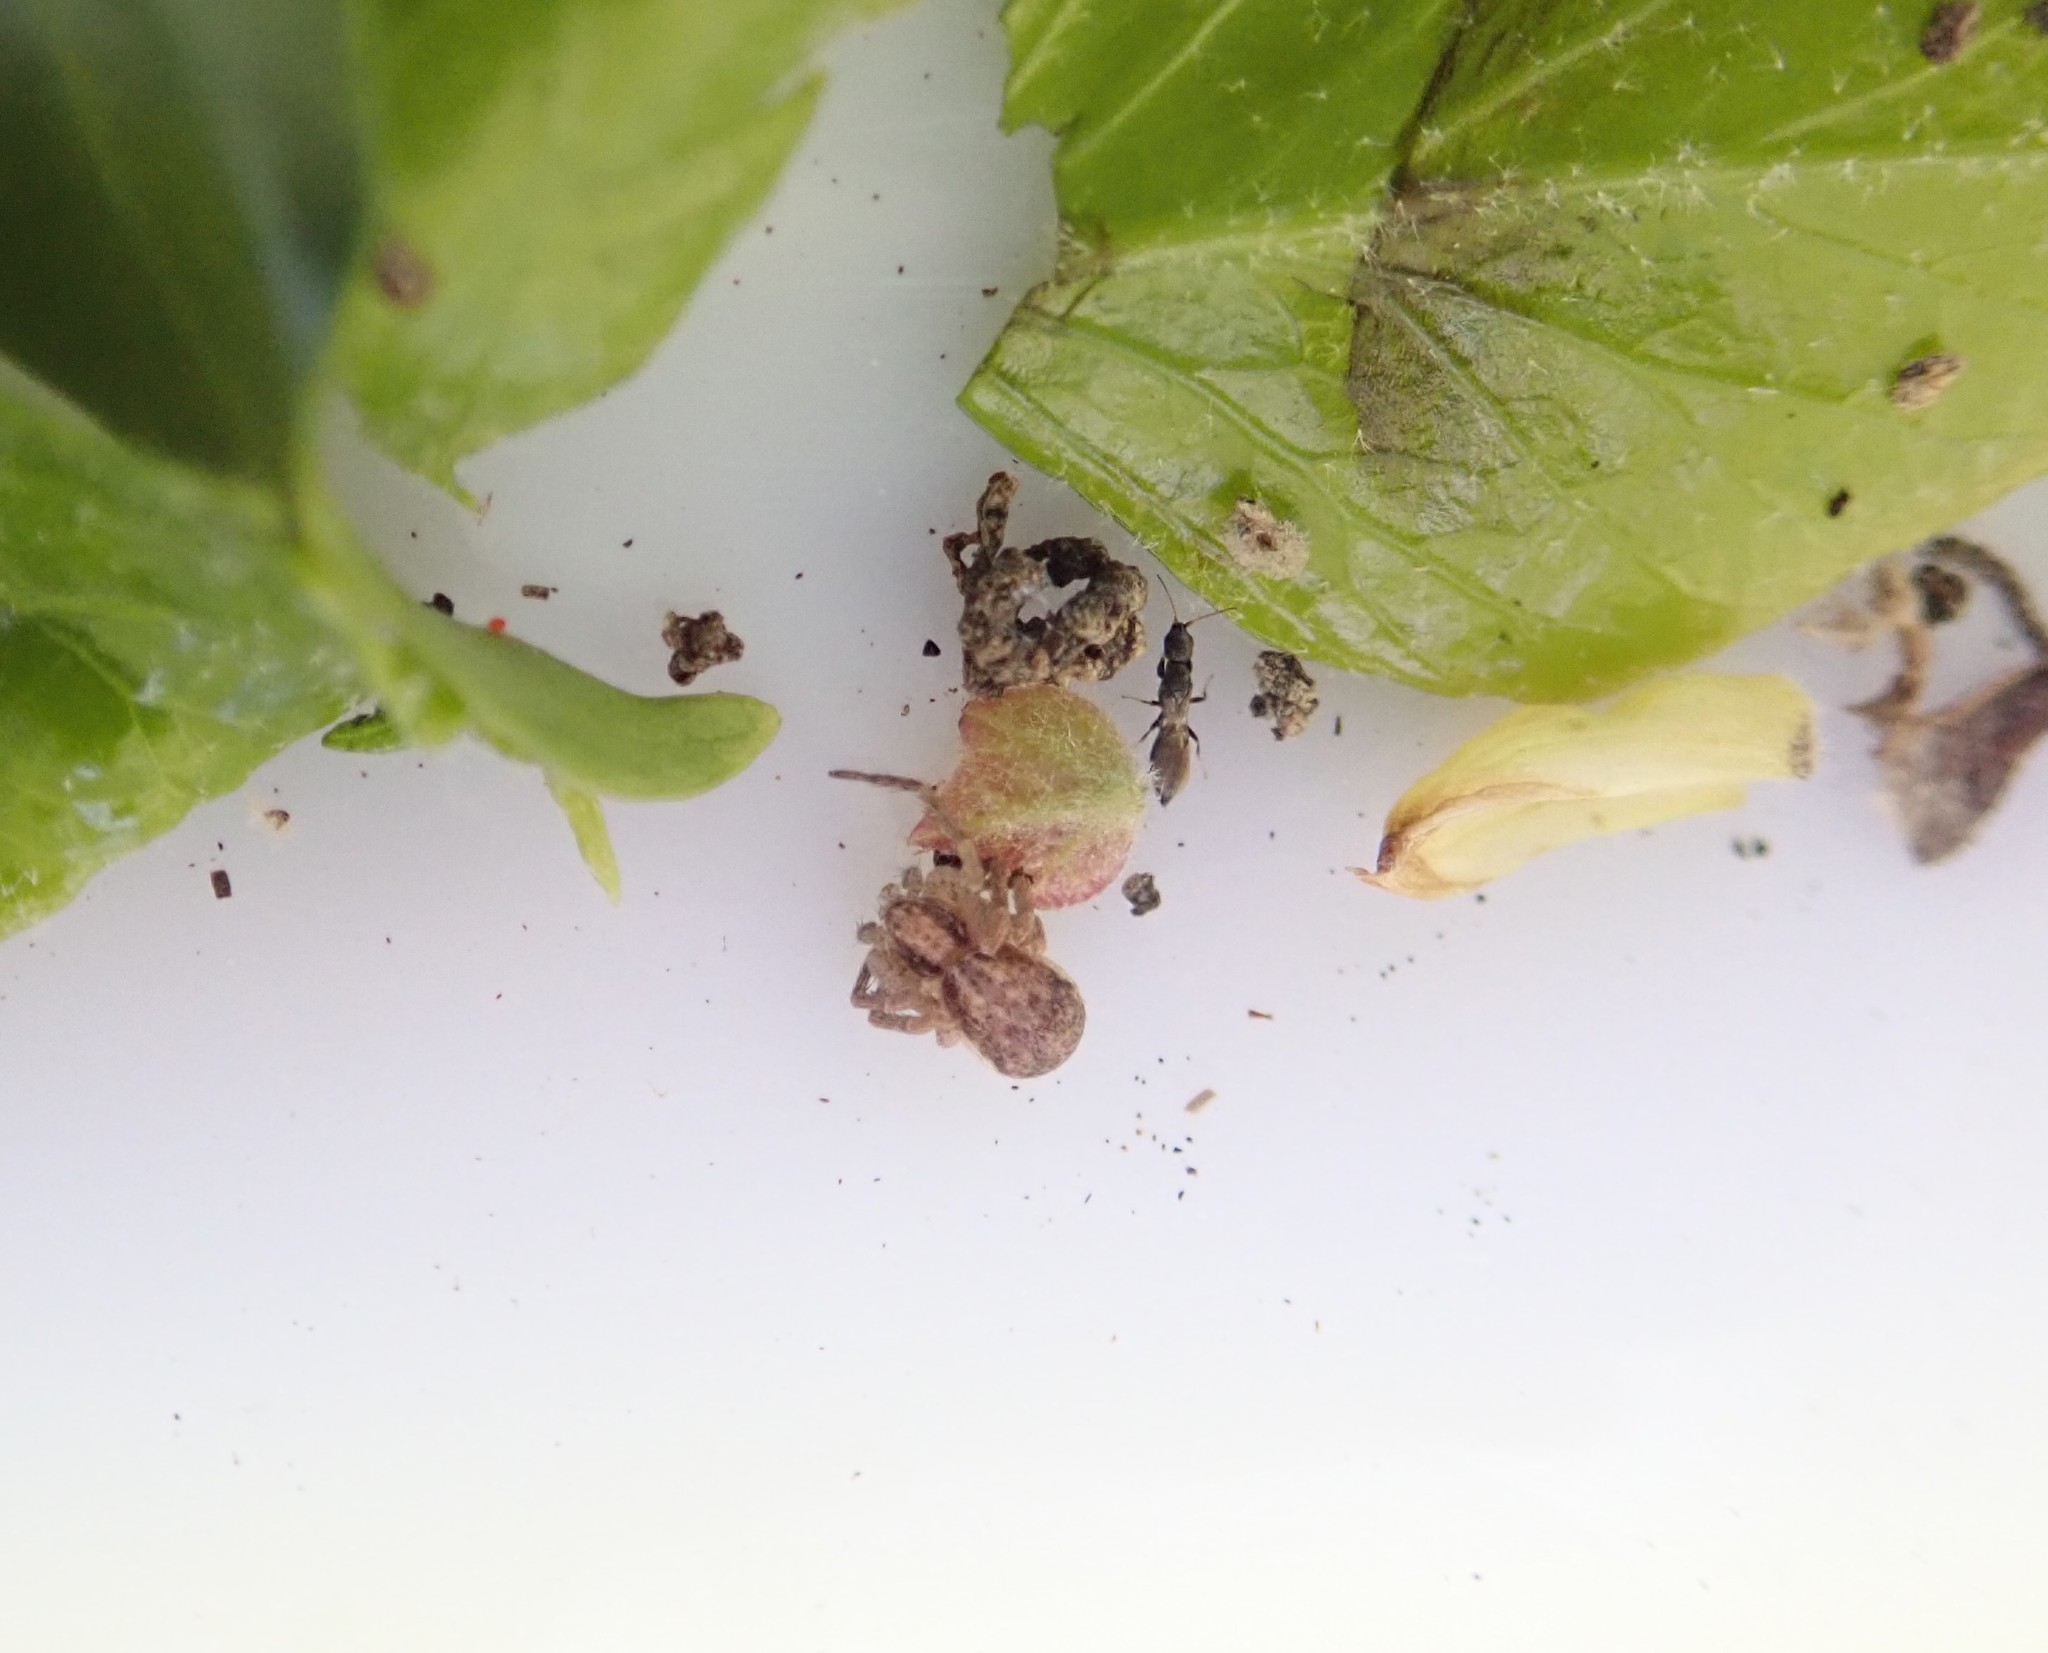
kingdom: Animalia
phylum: Arthropoda
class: Arachnida
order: Araneae
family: Philodromidae
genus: Philodromus
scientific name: Philodromus dispar
